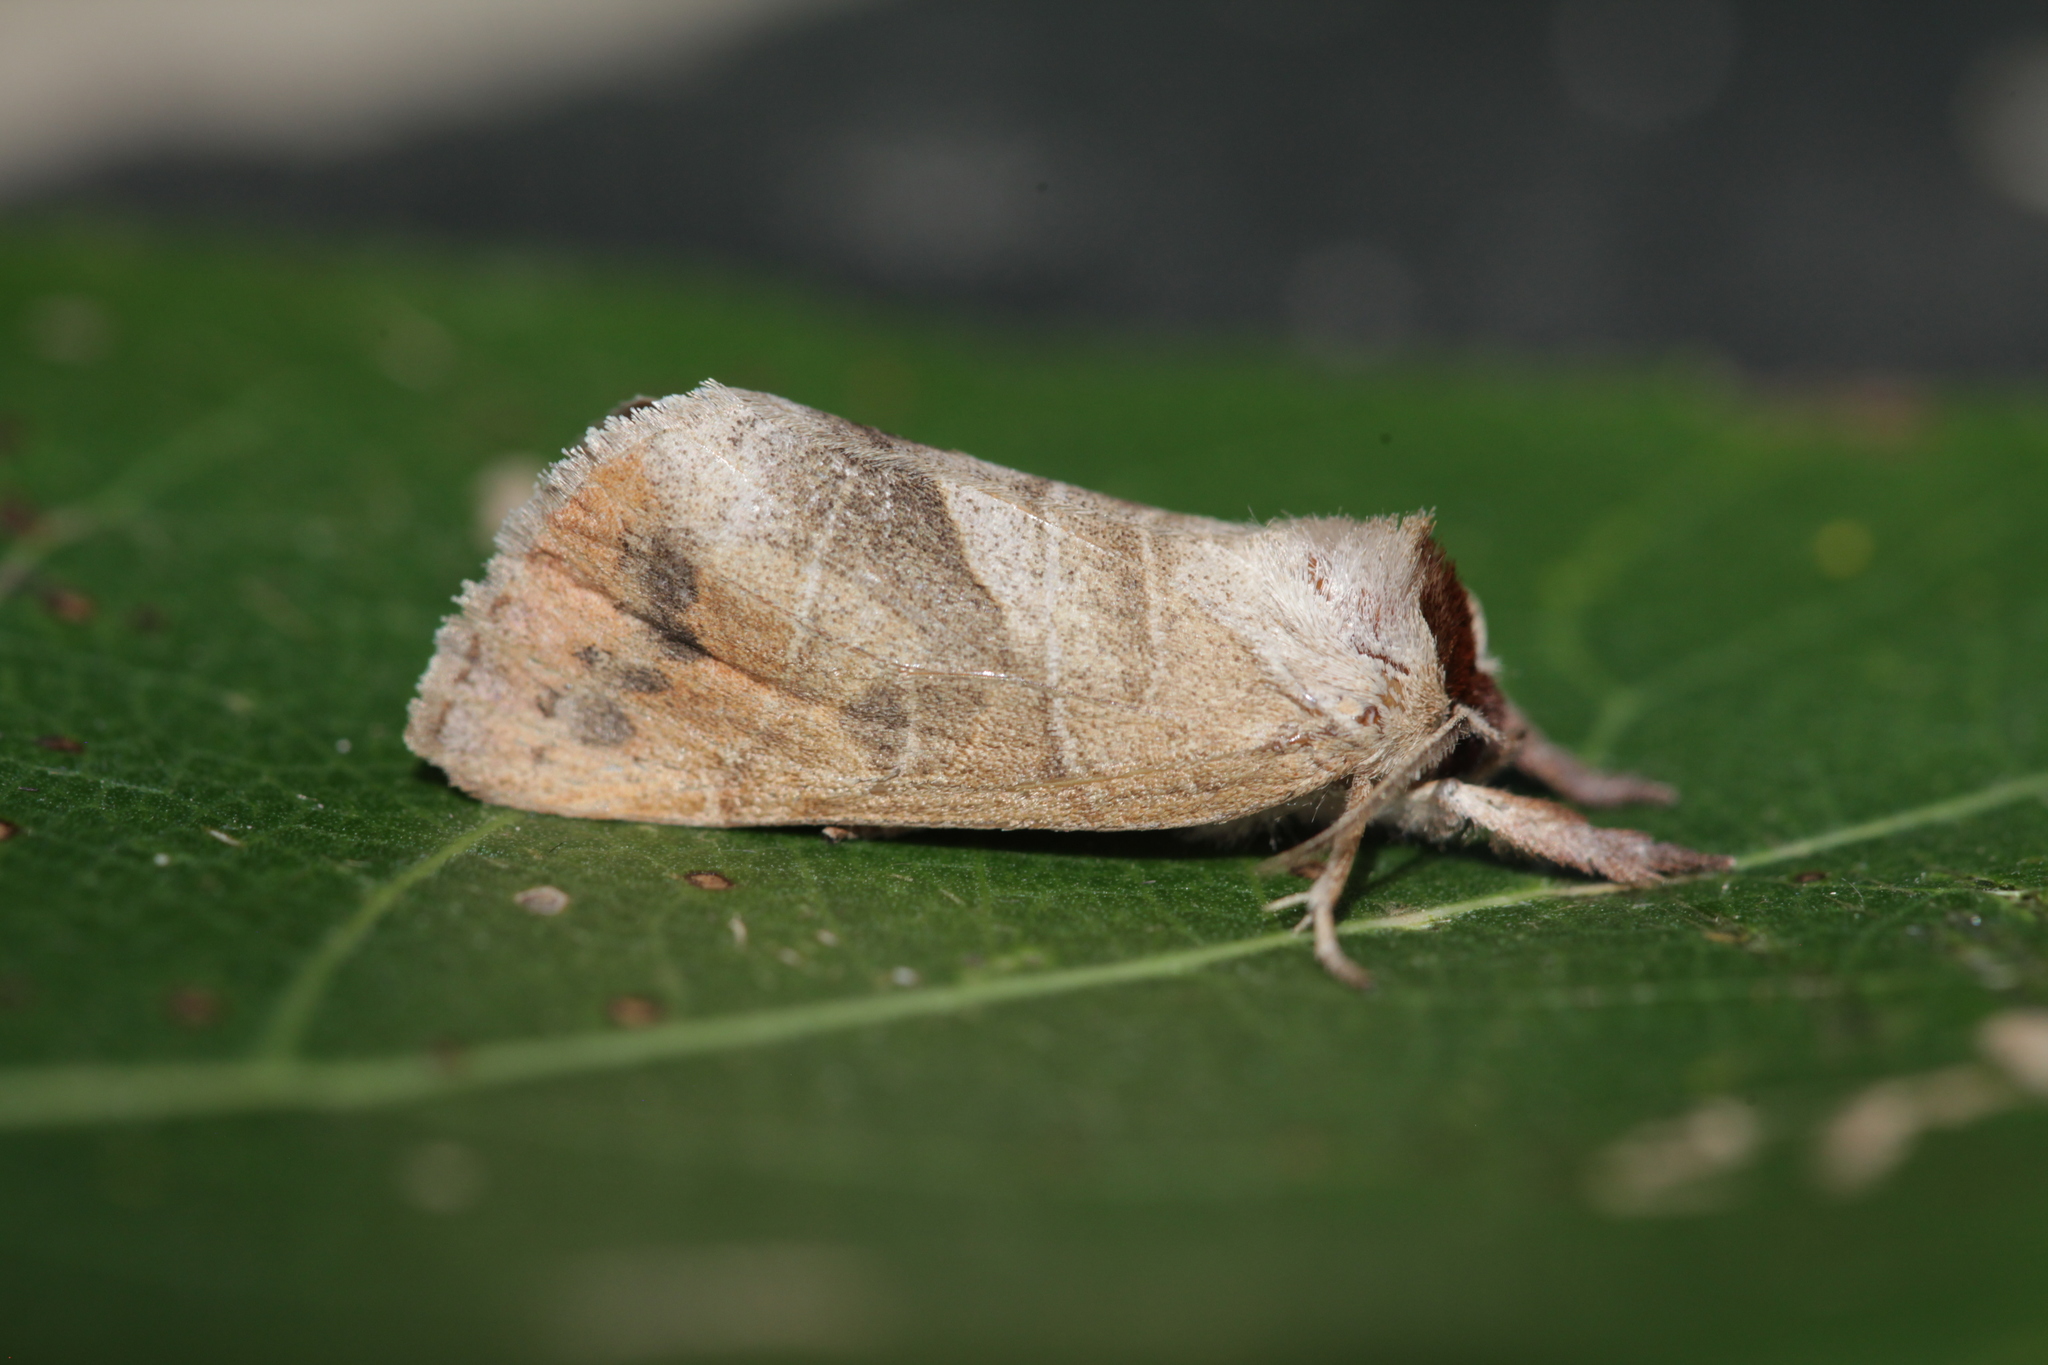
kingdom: Animalia
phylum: Arthropoda
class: Insecta
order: Lepidoptera
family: Notodontidae
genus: Clostera
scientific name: Clostera anastomosis
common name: Poplar tip moth
